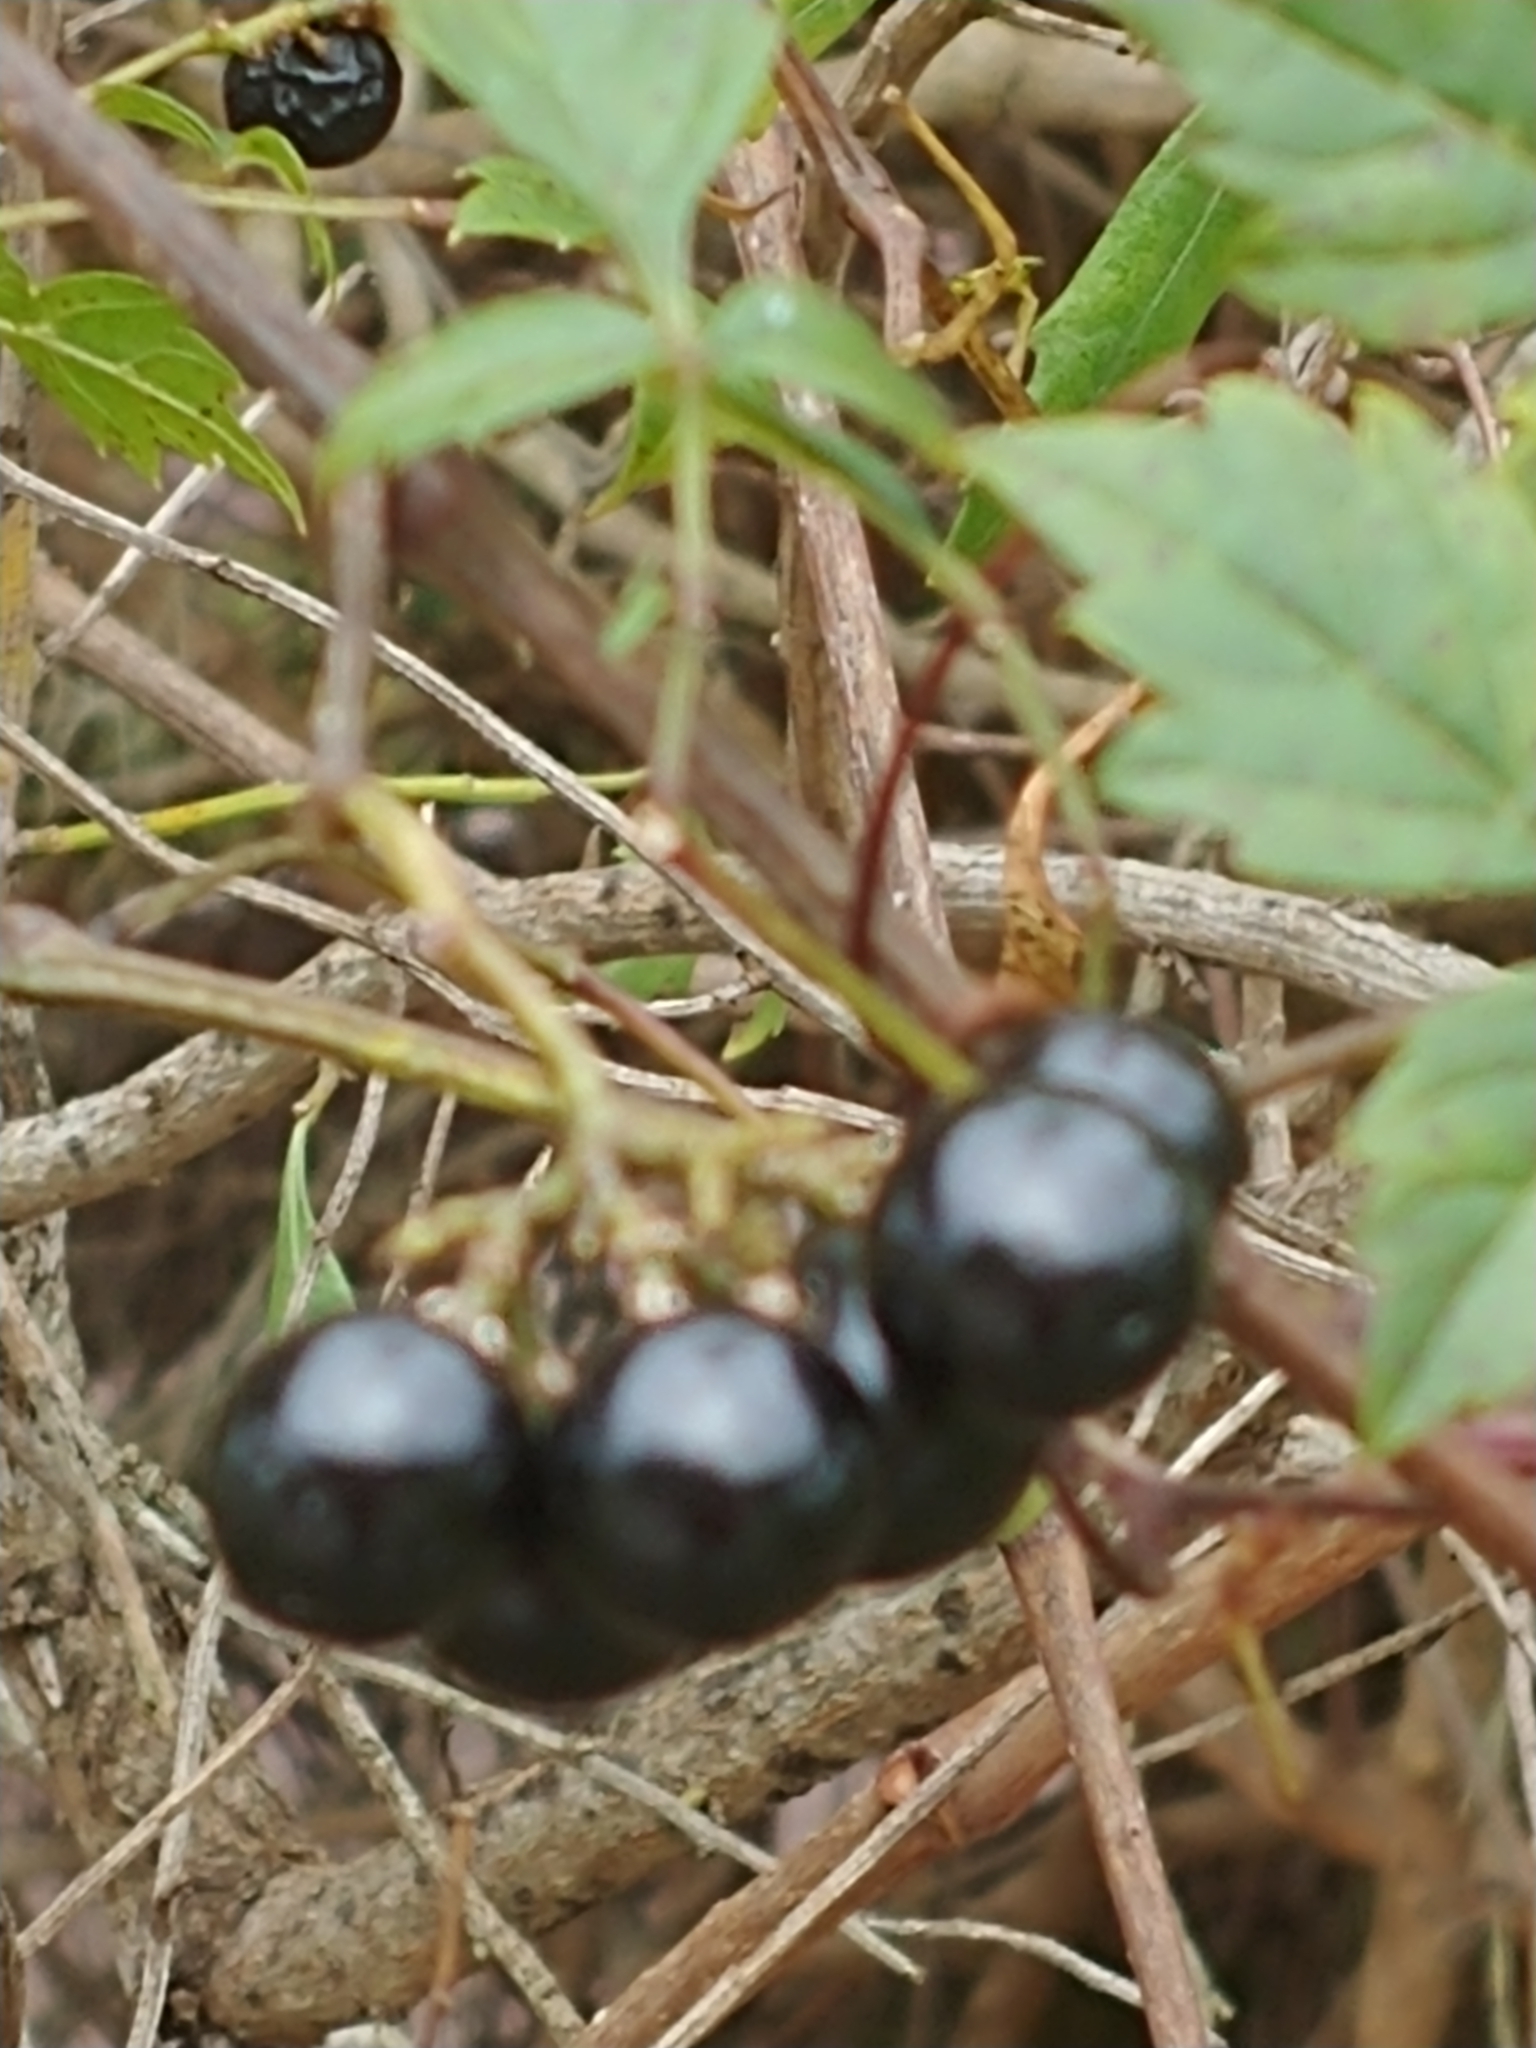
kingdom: Plantae
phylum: Tracheophyta
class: Magnoliopsida
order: Vitales
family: Vitaceae
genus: Nekemias
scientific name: Nekemias arborea
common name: Peppervine
